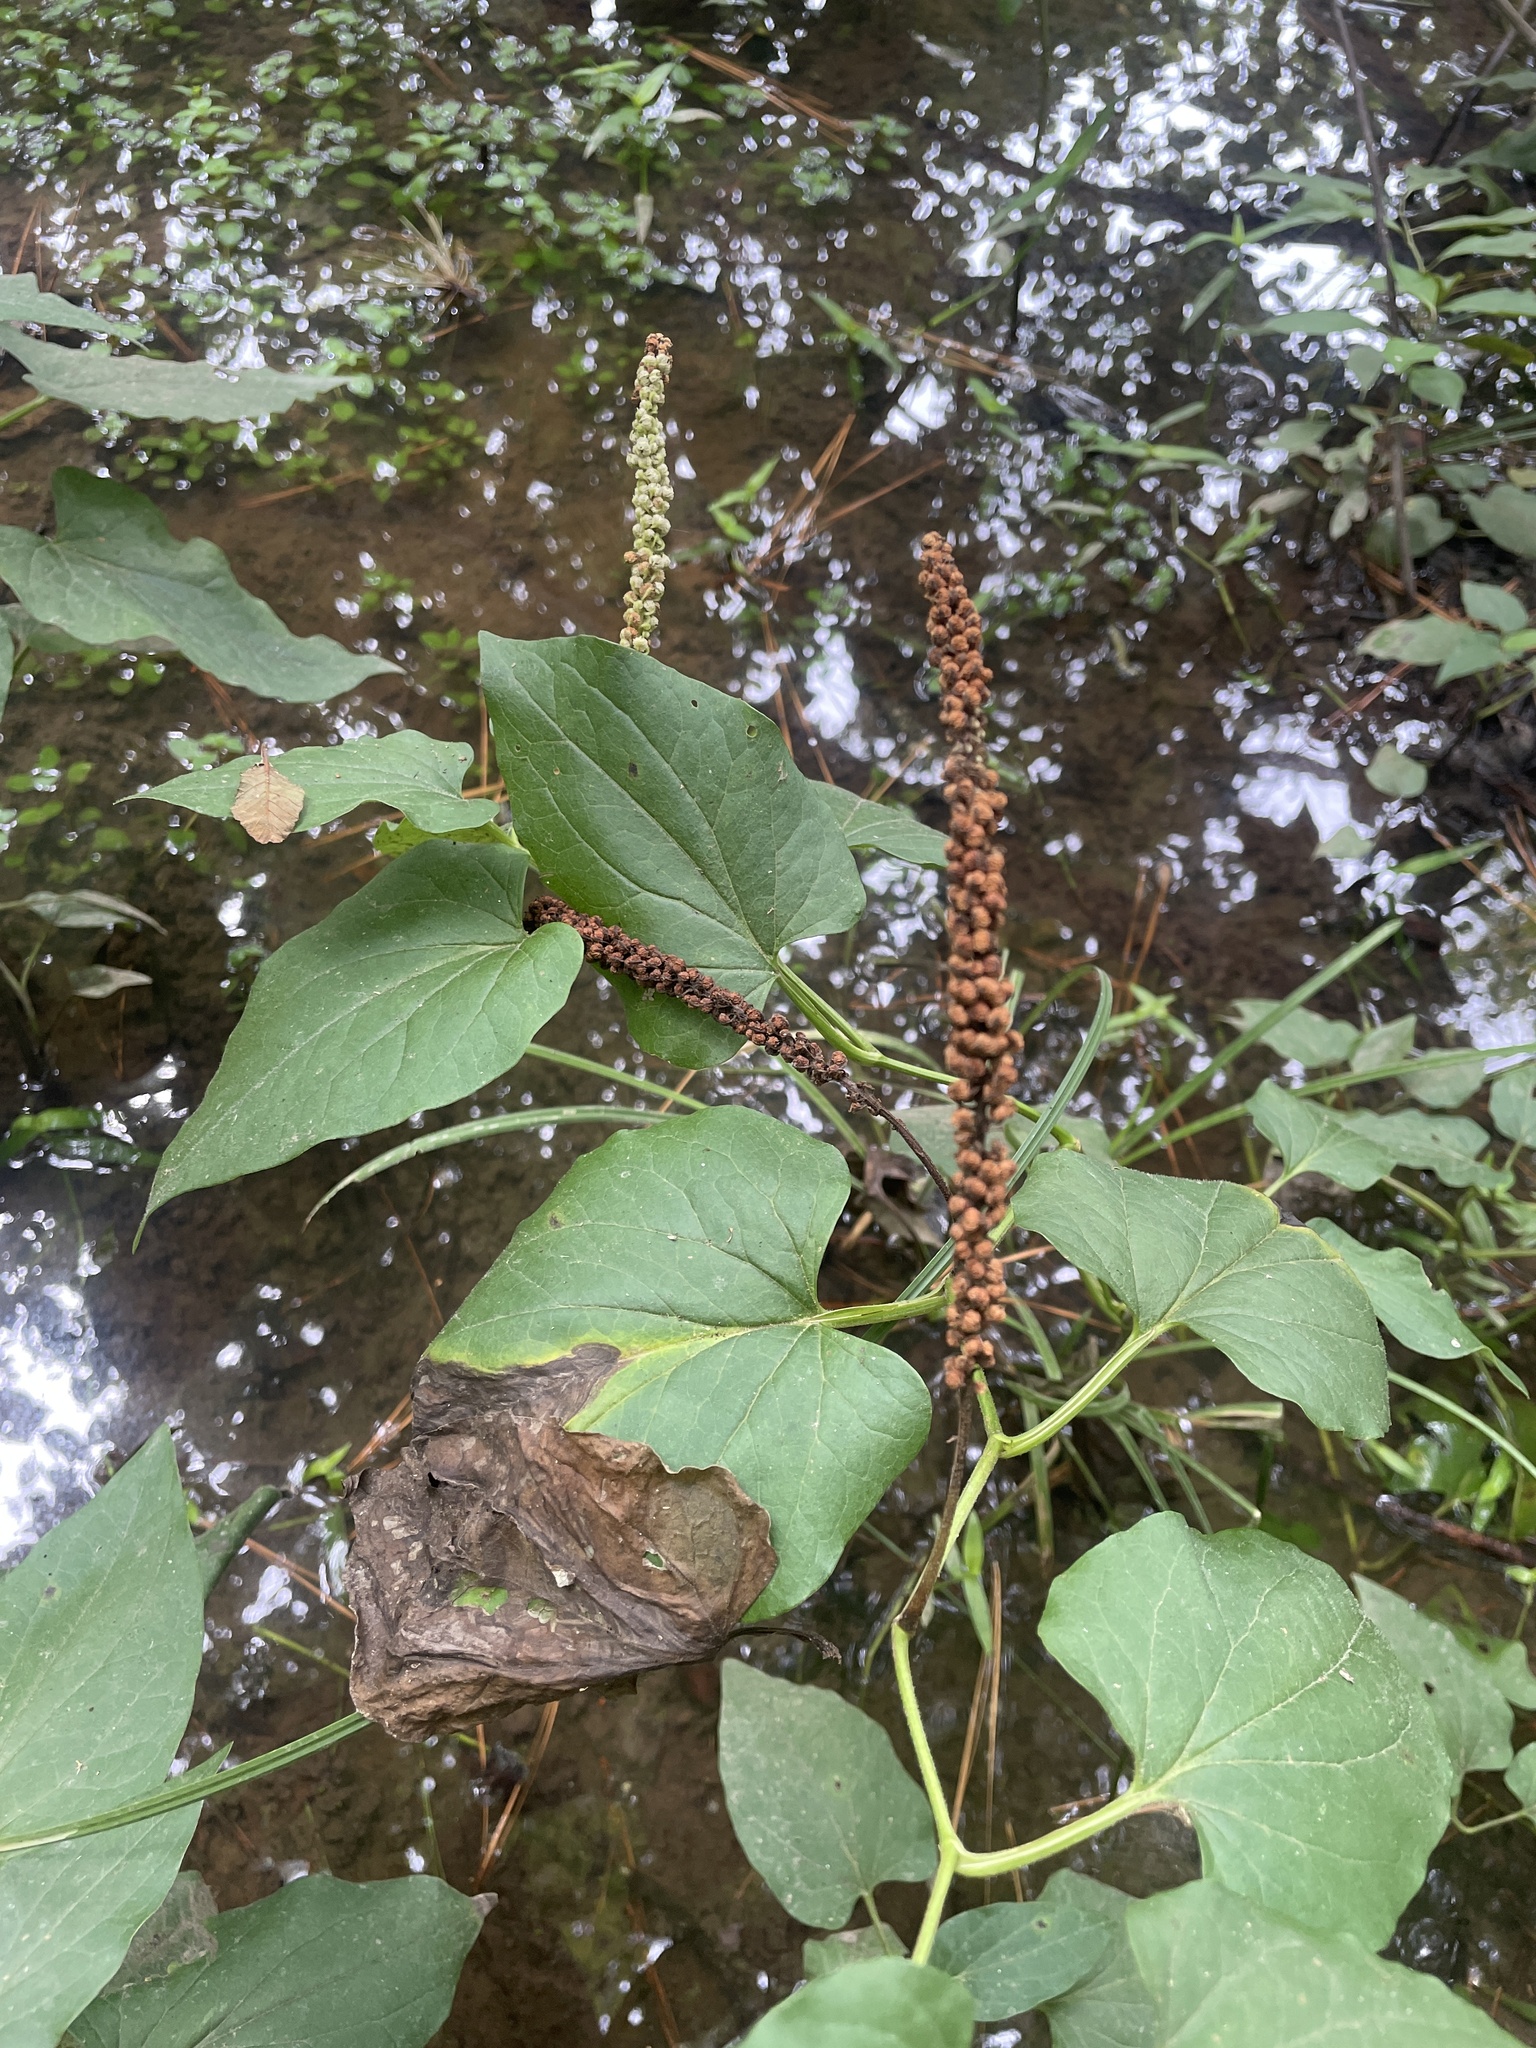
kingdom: Plantae
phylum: Tracheophyta
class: Magnoliopsida
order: Piperales
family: Saururaceae
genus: Saururus
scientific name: Saururus cernuus
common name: Lizard's-tail
